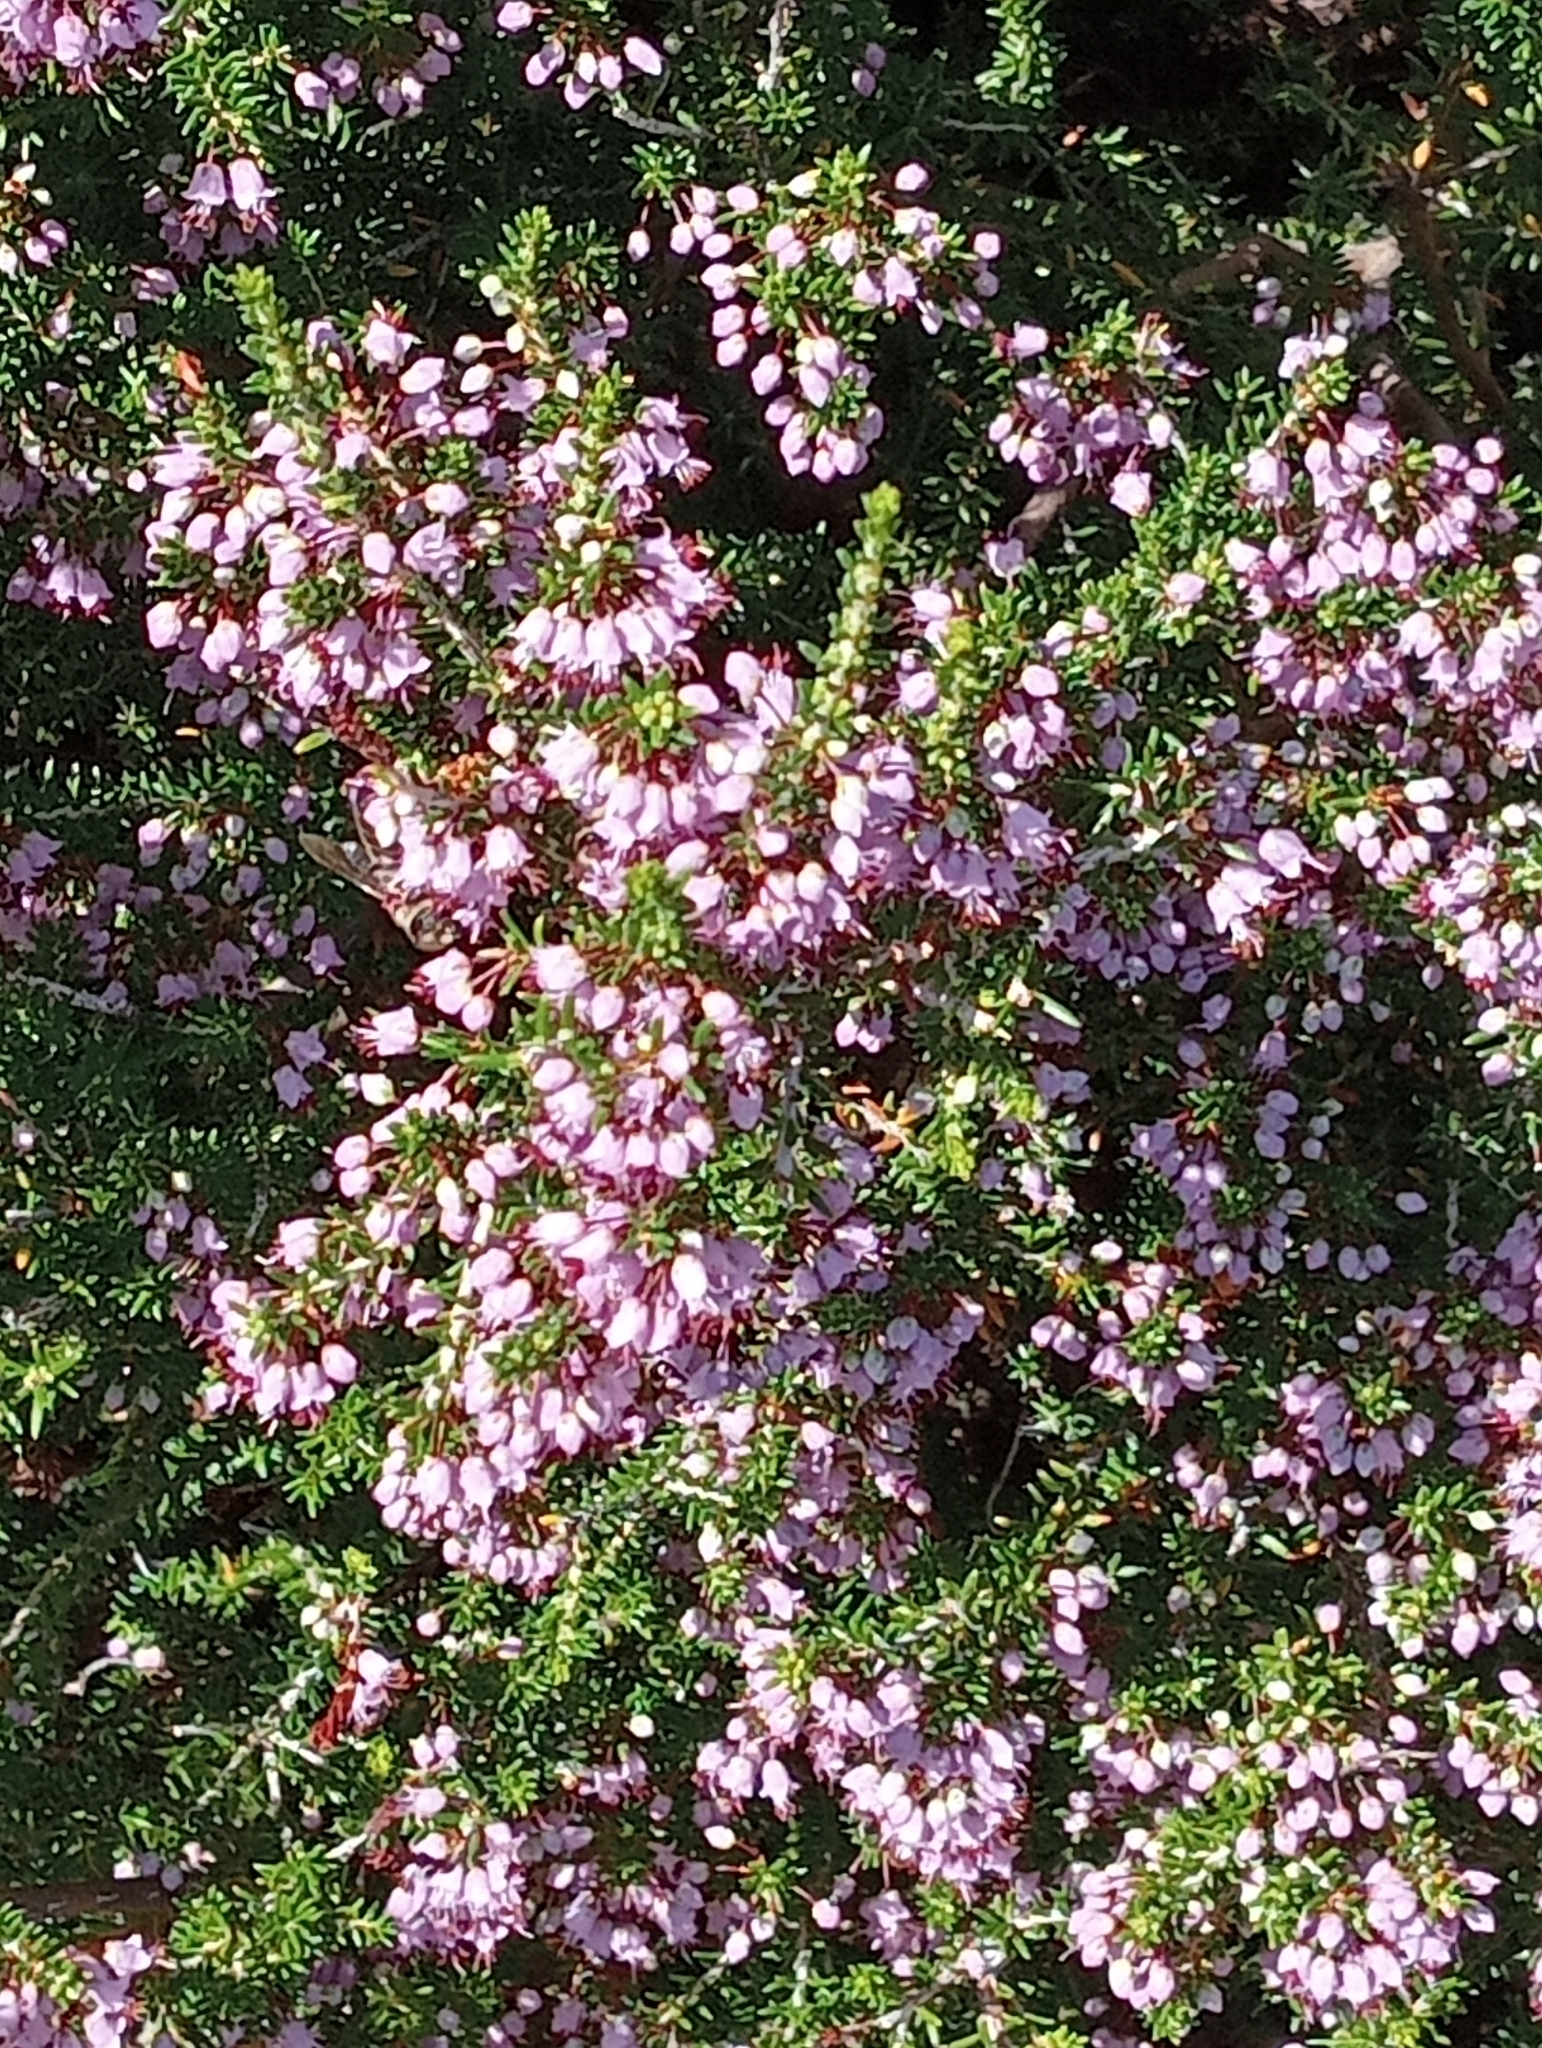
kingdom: Plantae
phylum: Tracheophyta
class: Magnoliopsida
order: Ericales
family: Ericaceae
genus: Erica
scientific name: Erica manipuliflora
